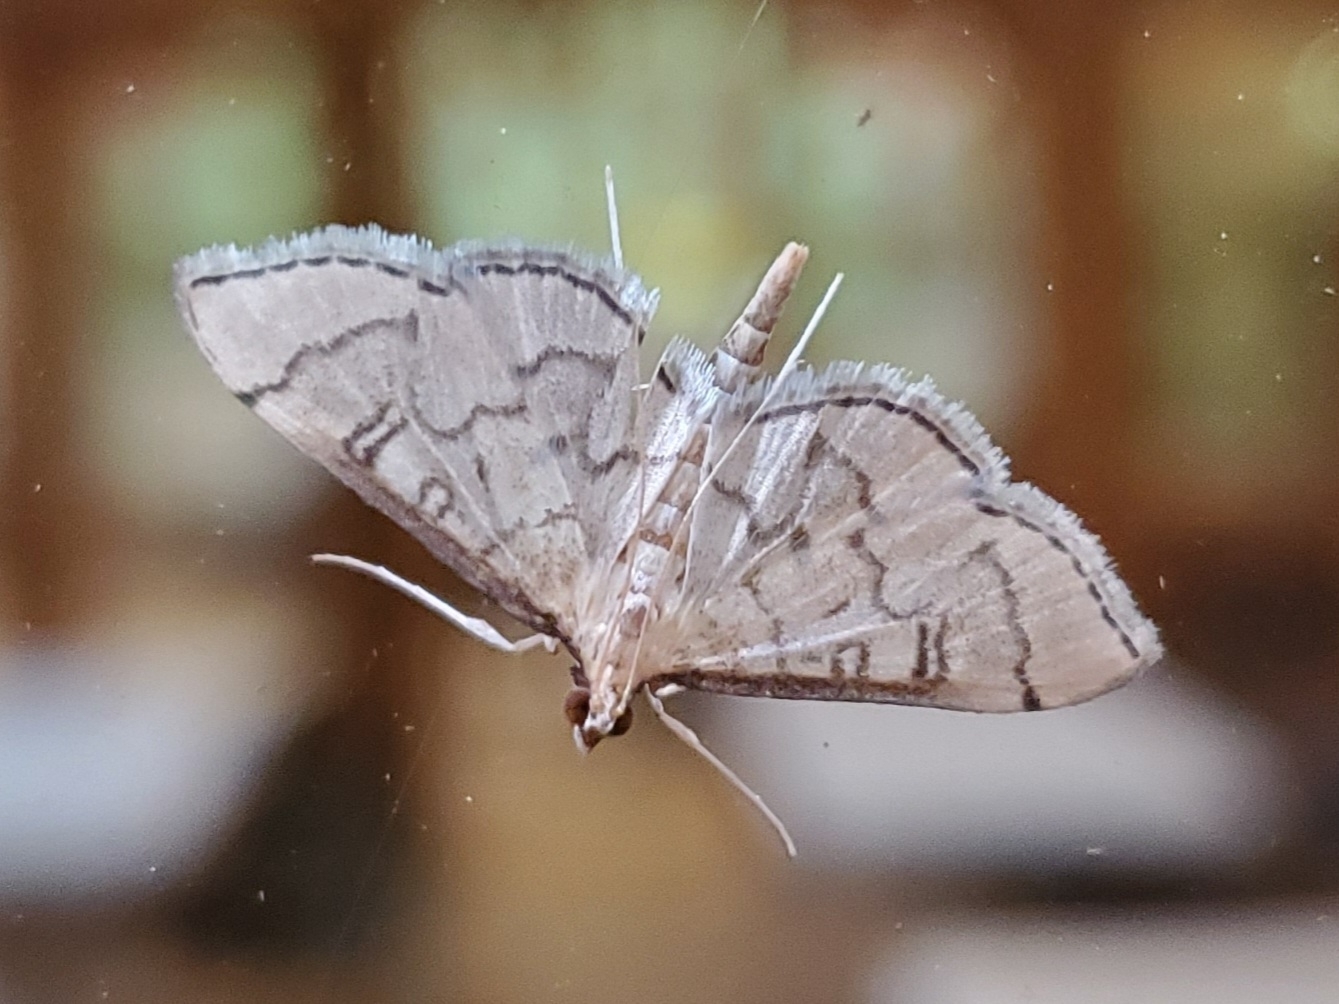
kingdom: Animalia
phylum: Arthropoda
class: Insecta
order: Lepidoptera
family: Crambidae
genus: Lamprosema
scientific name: Lamprosema Blepharomastix ranalis
